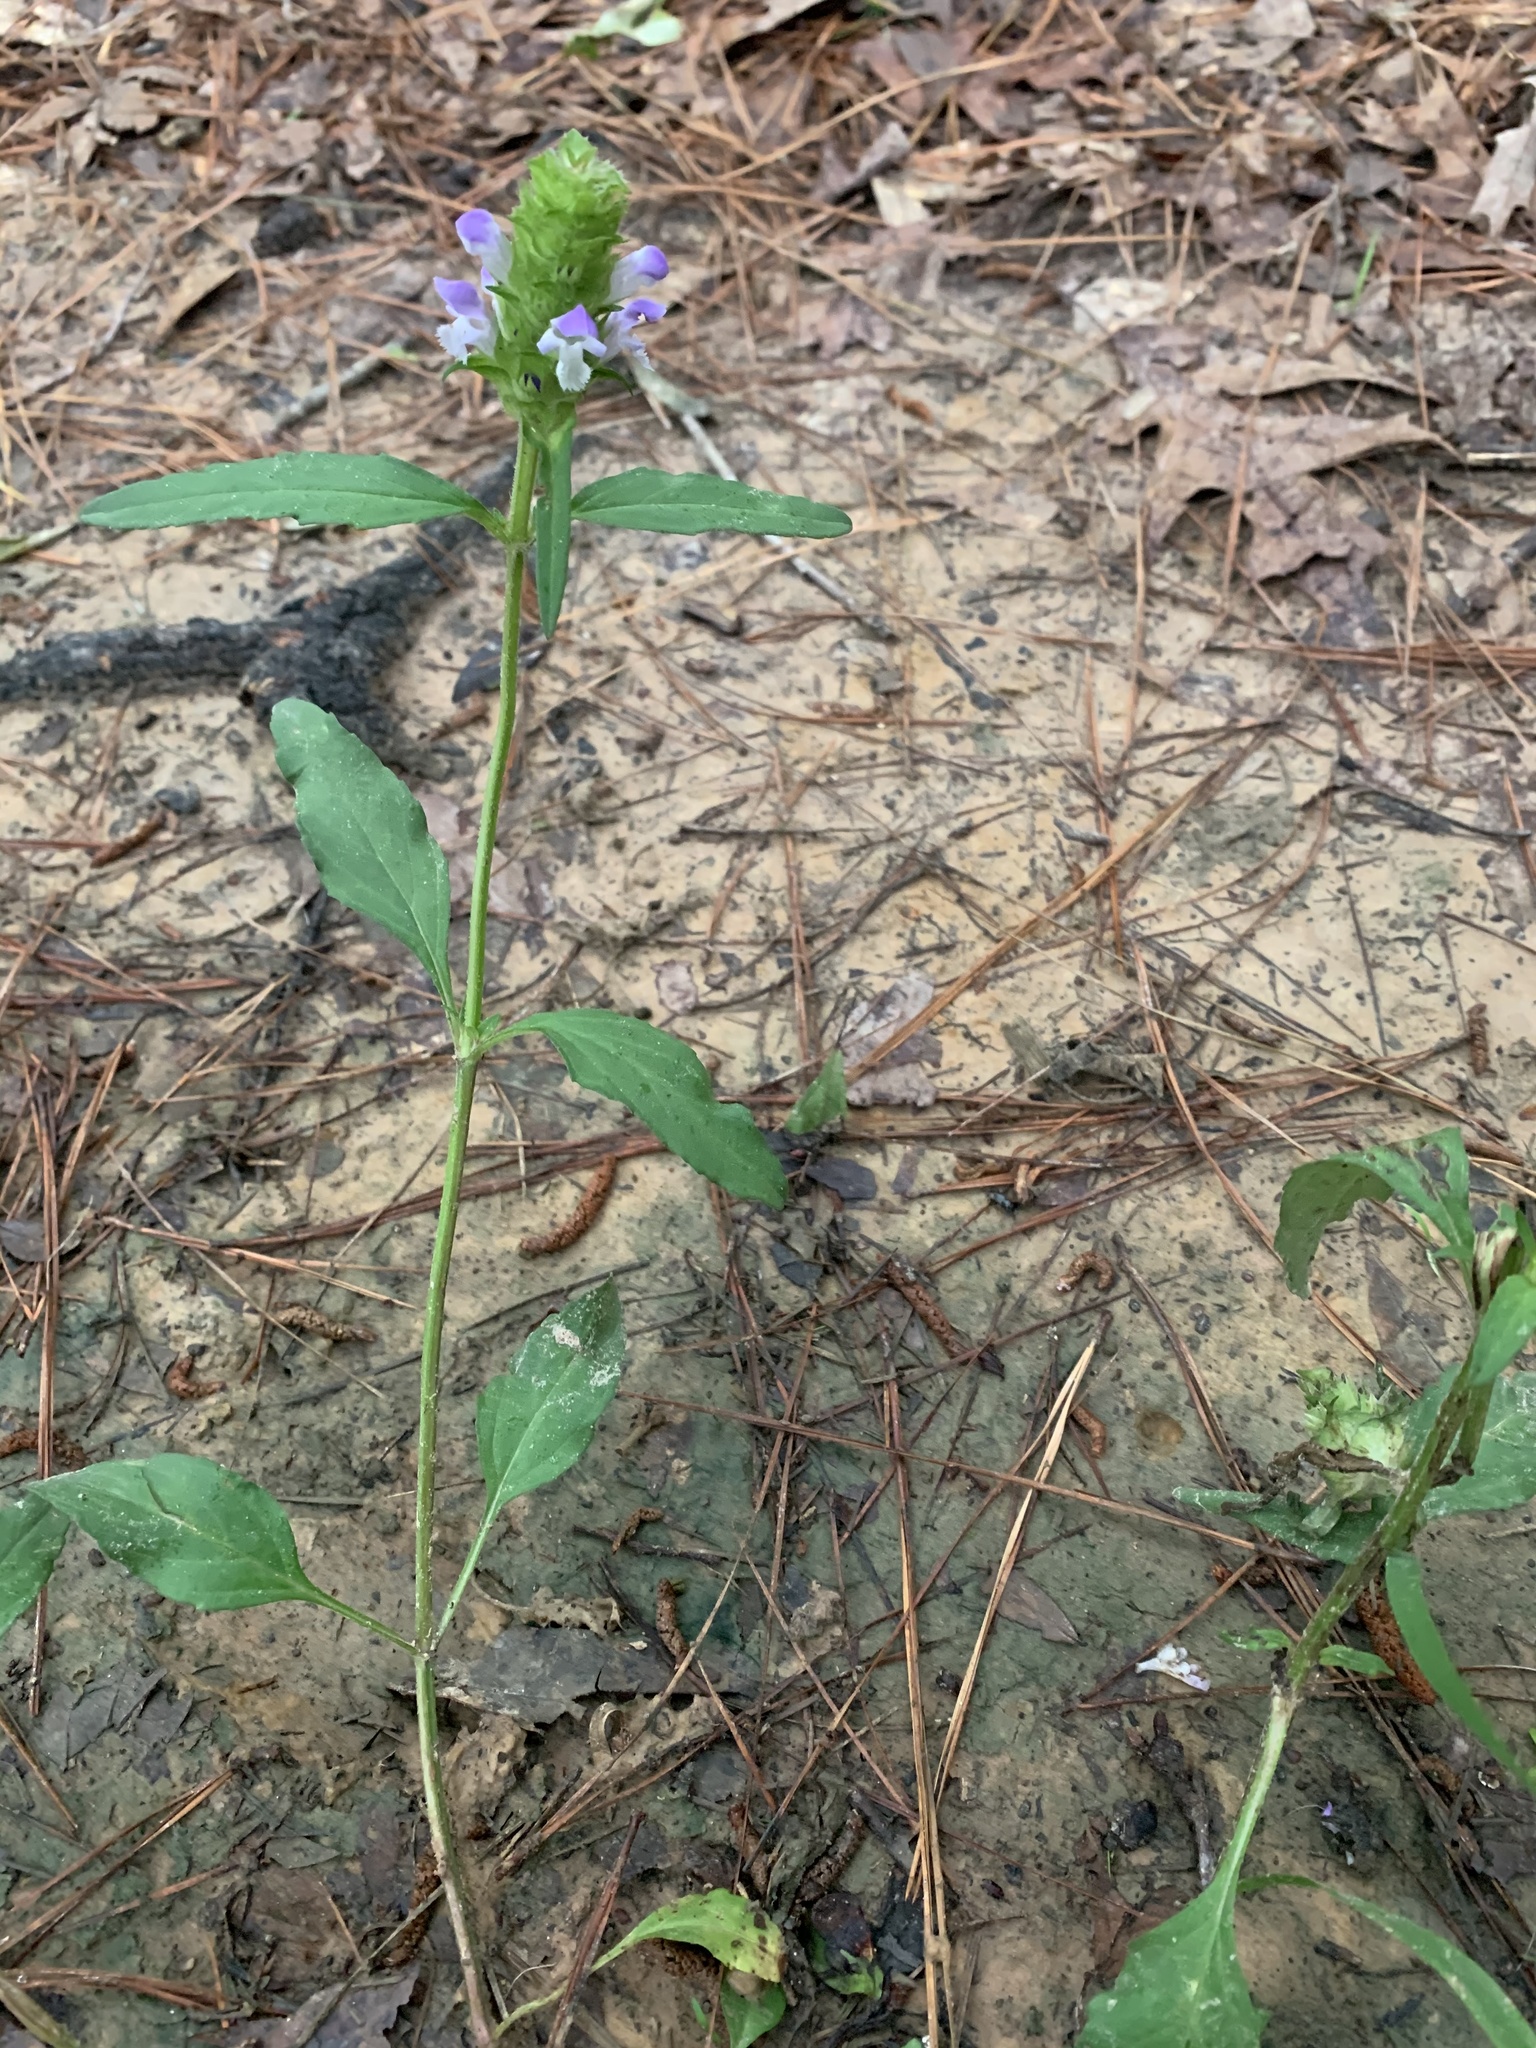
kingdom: Plantae
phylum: Tracheophyta
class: Magnoliopsida
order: Lamiales
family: Lamiaceae
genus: Prunella
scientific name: Prunella vulgaris
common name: Heal-all
